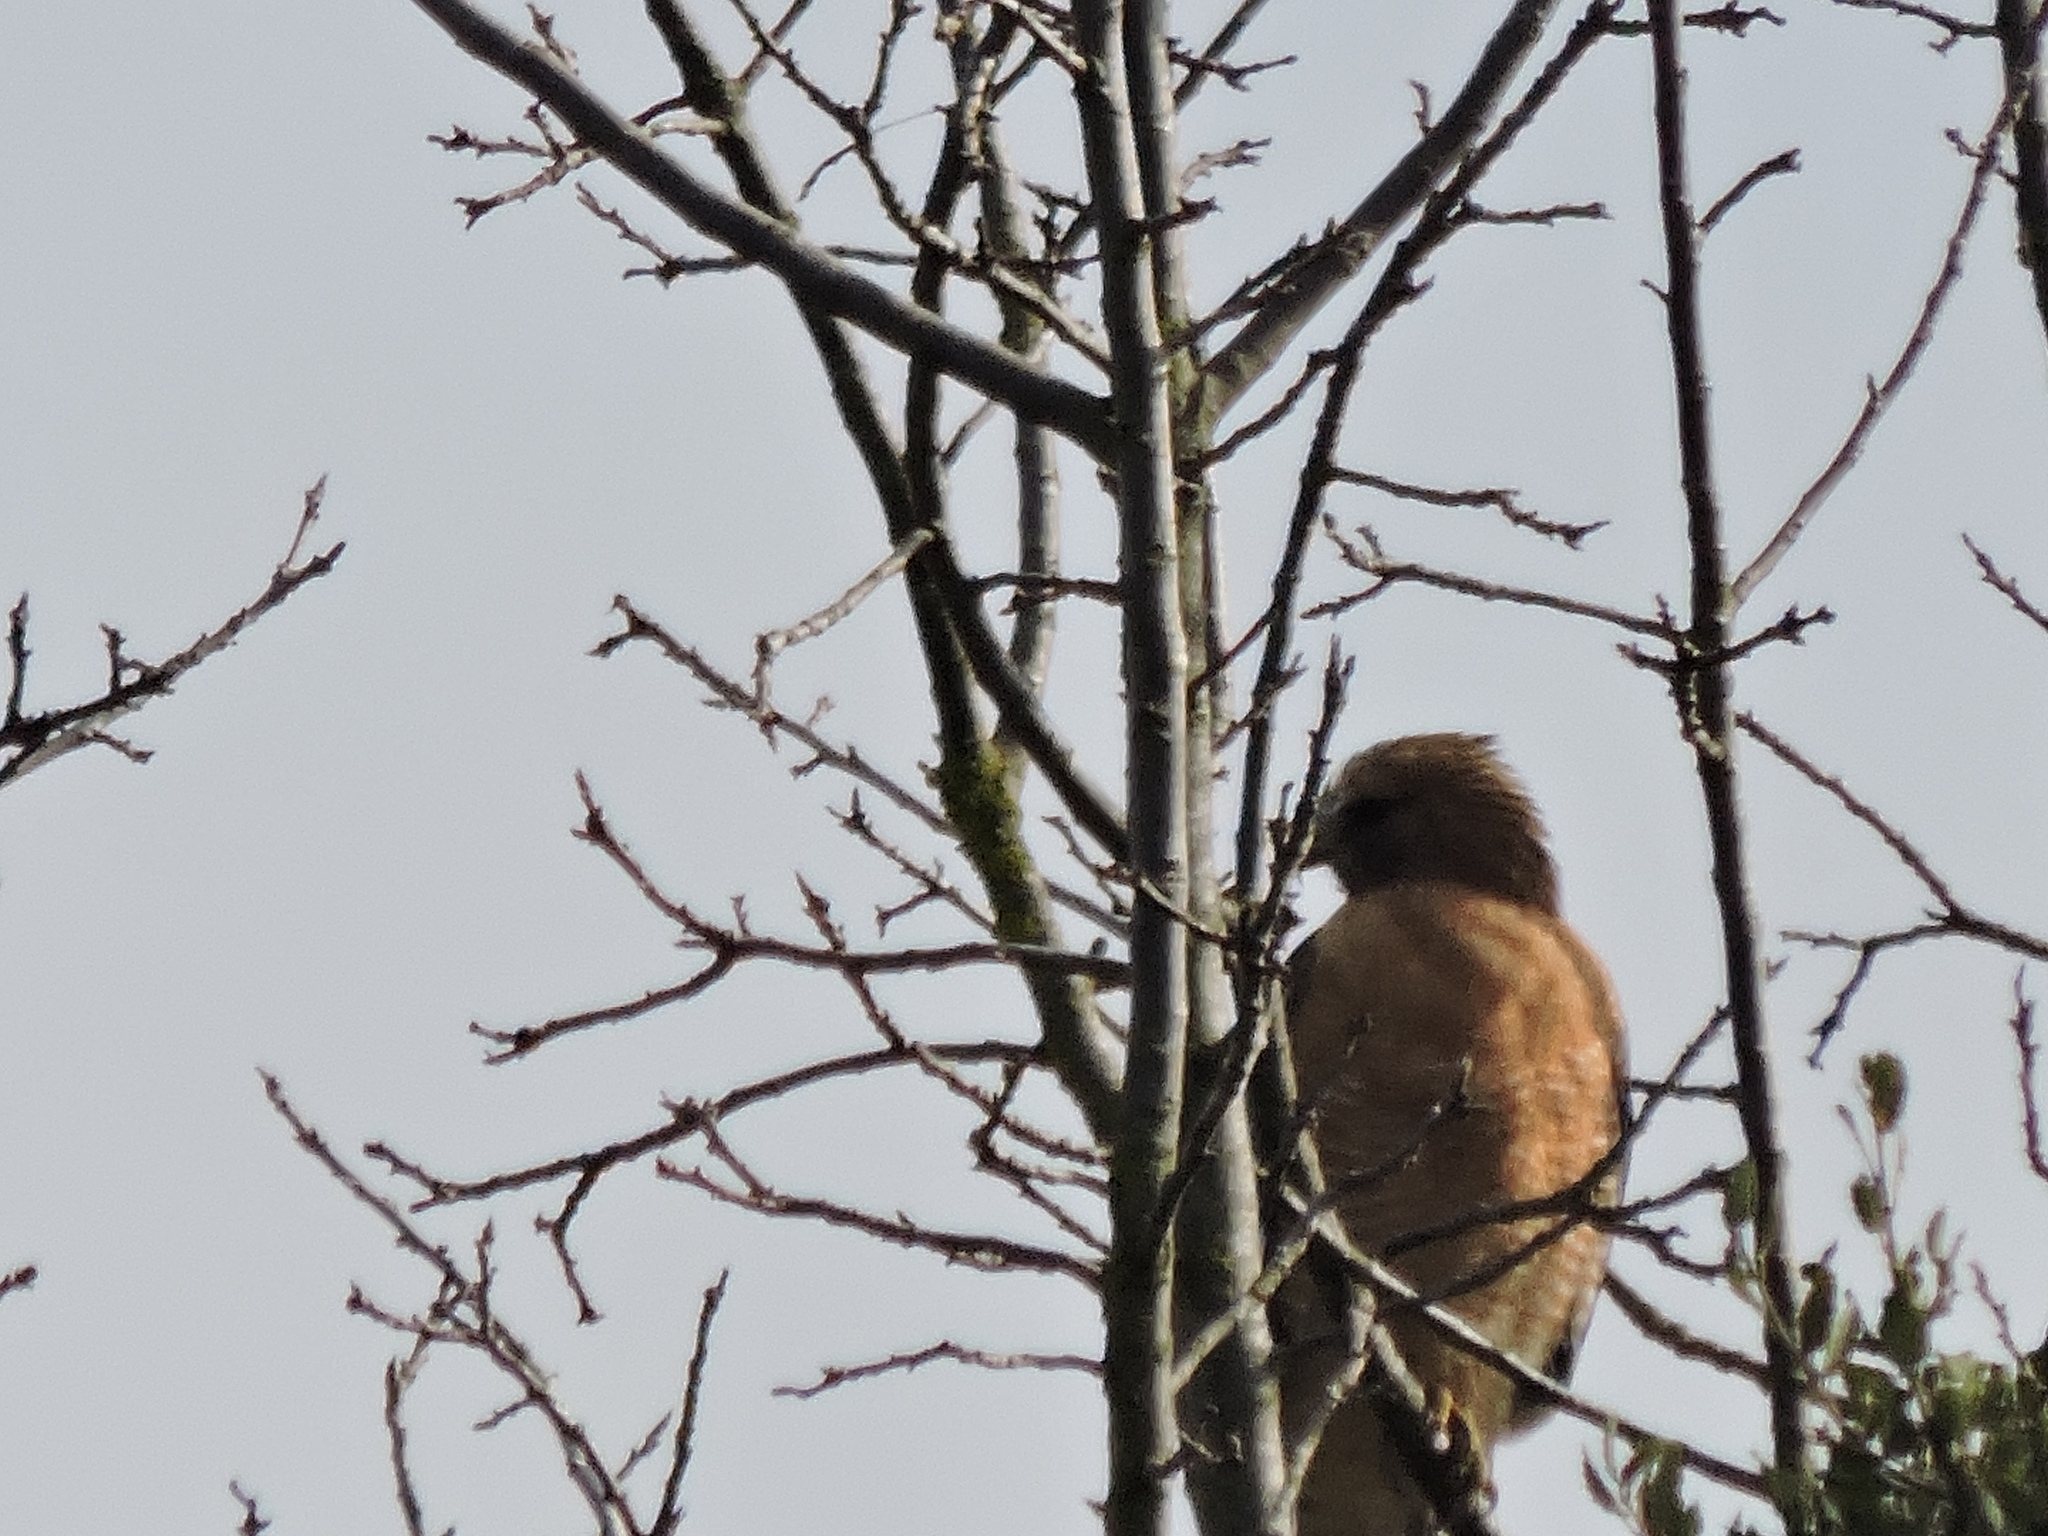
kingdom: Animalia
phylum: Chordata
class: Aves
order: Accipitriformes
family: Accipitridae
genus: Buteo
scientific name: Buteo lineatus
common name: Red-shouldered hawk
